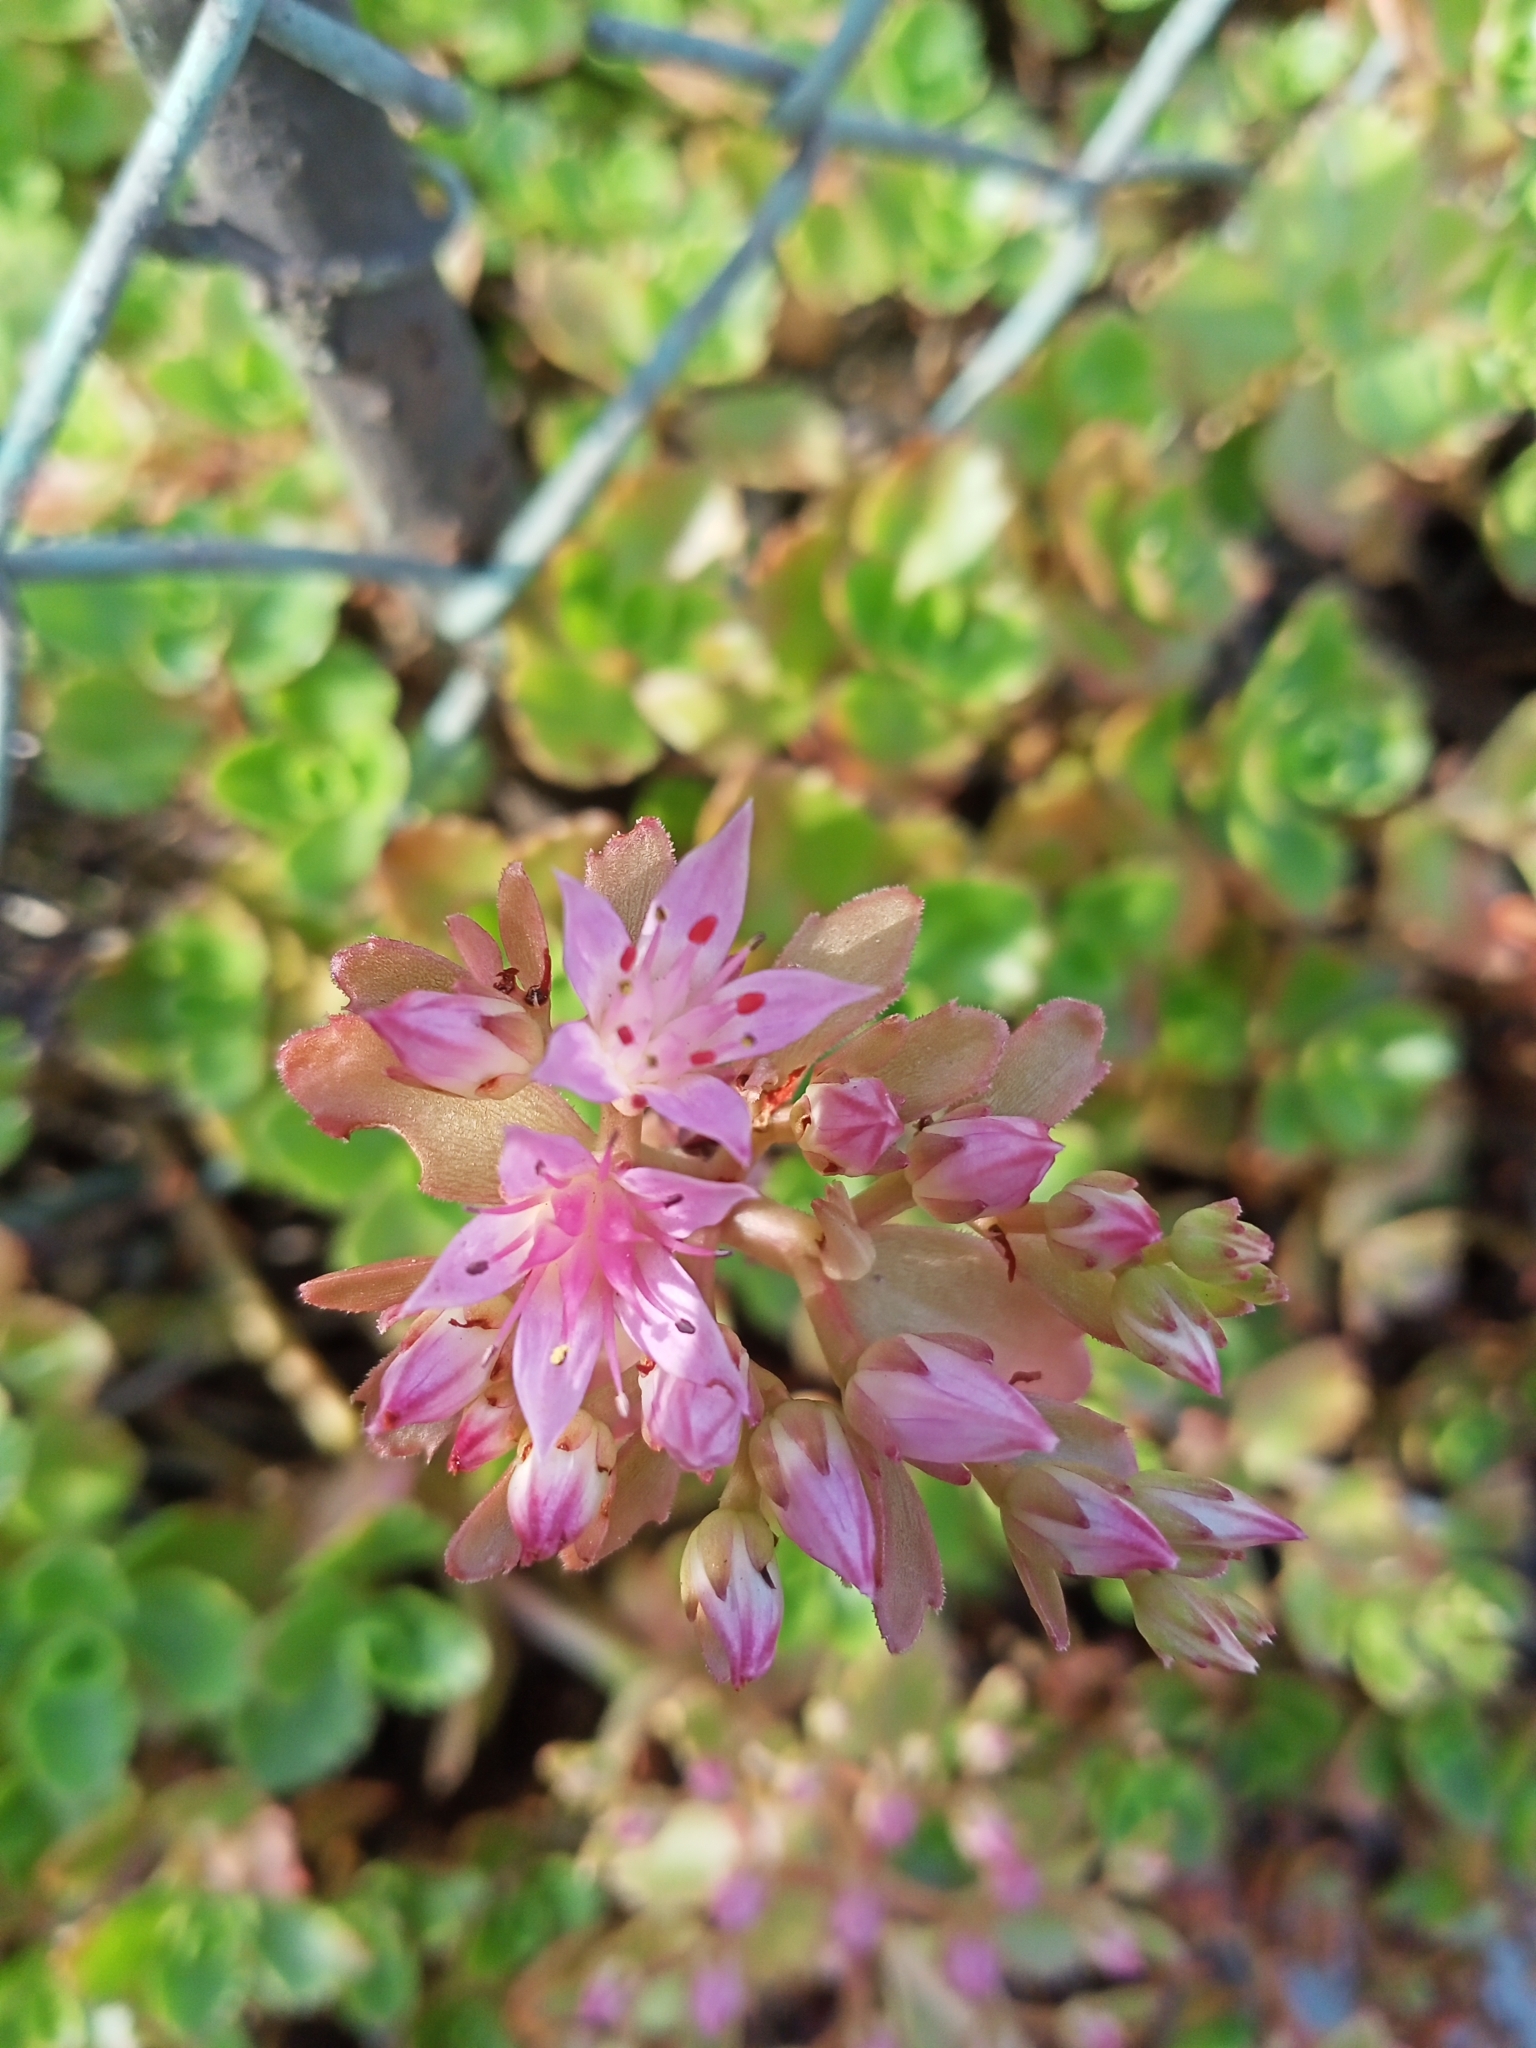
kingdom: Plantae
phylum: Tracheophyta
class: Magnoliopsida
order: Saxifragales
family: Crassulaceae
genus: Phedimus
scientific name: Phedimus spurius
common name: Caucasian stonecrop
